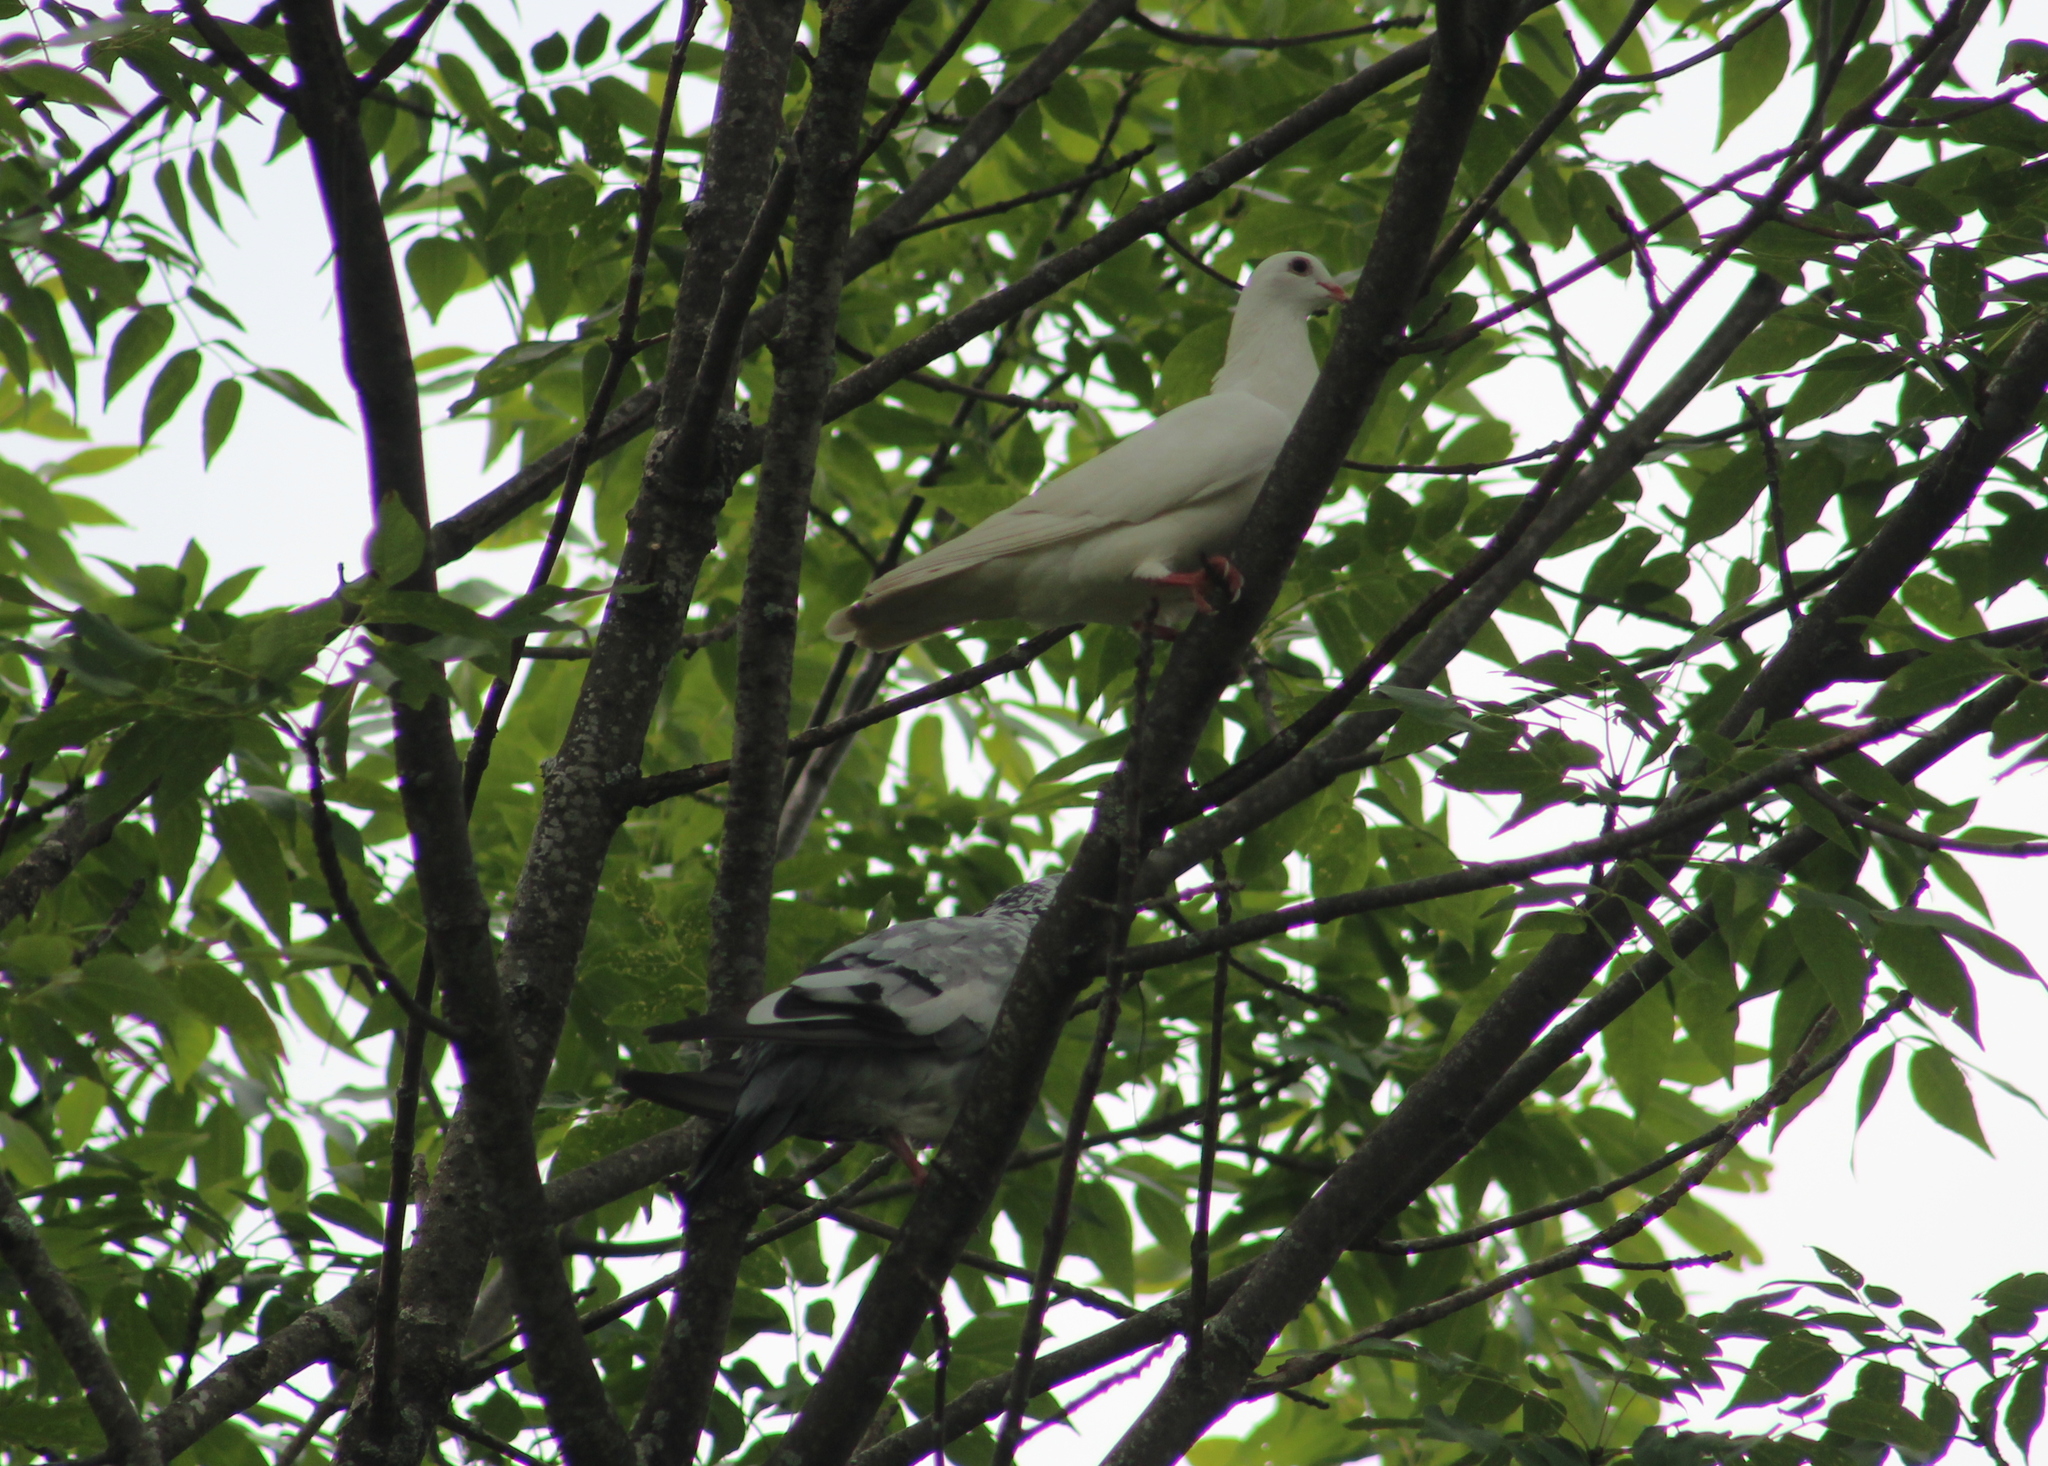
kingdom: Animalia
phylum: Chordata
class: Aves
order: Columbiformes
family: Columbidae
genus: Columba
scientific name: Columba livia
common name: Rock pigeon
